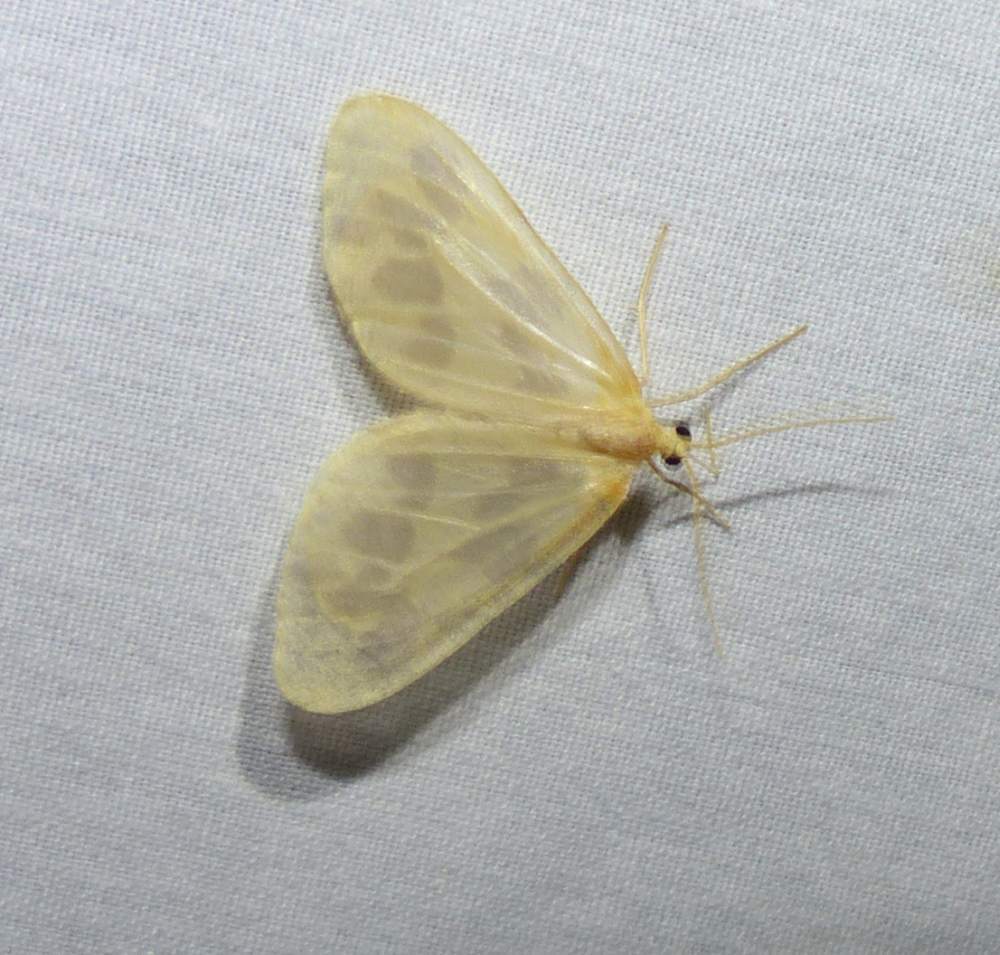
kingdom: Animalia
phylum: Arthropoda
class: Insecta
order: Lepidoptera
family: Geometridae
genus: Eubaphe
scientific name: Eubaphe mendica
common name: Beggar
